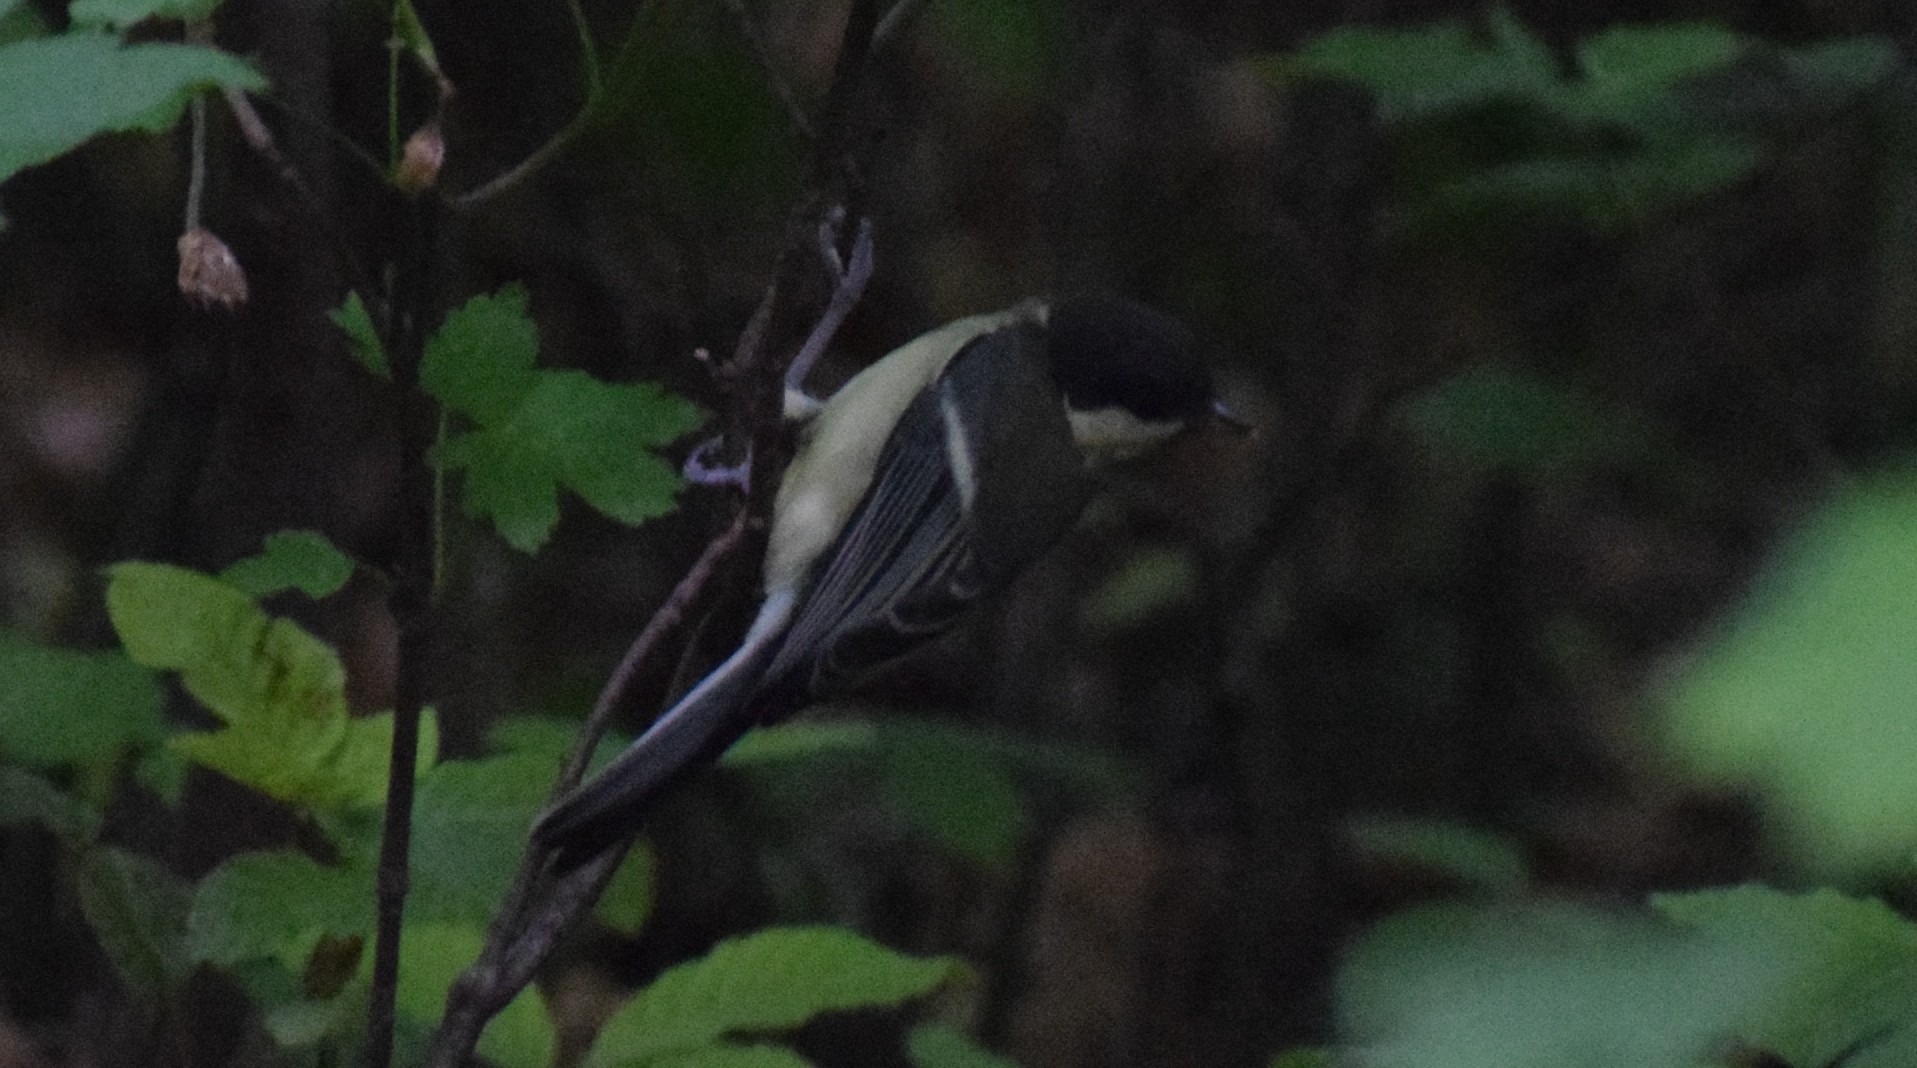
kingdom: Animalia
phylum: Chordata
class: Aves
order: Passeriformes
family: Paridae
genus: Parus
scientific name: Parus major
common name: Great tit
